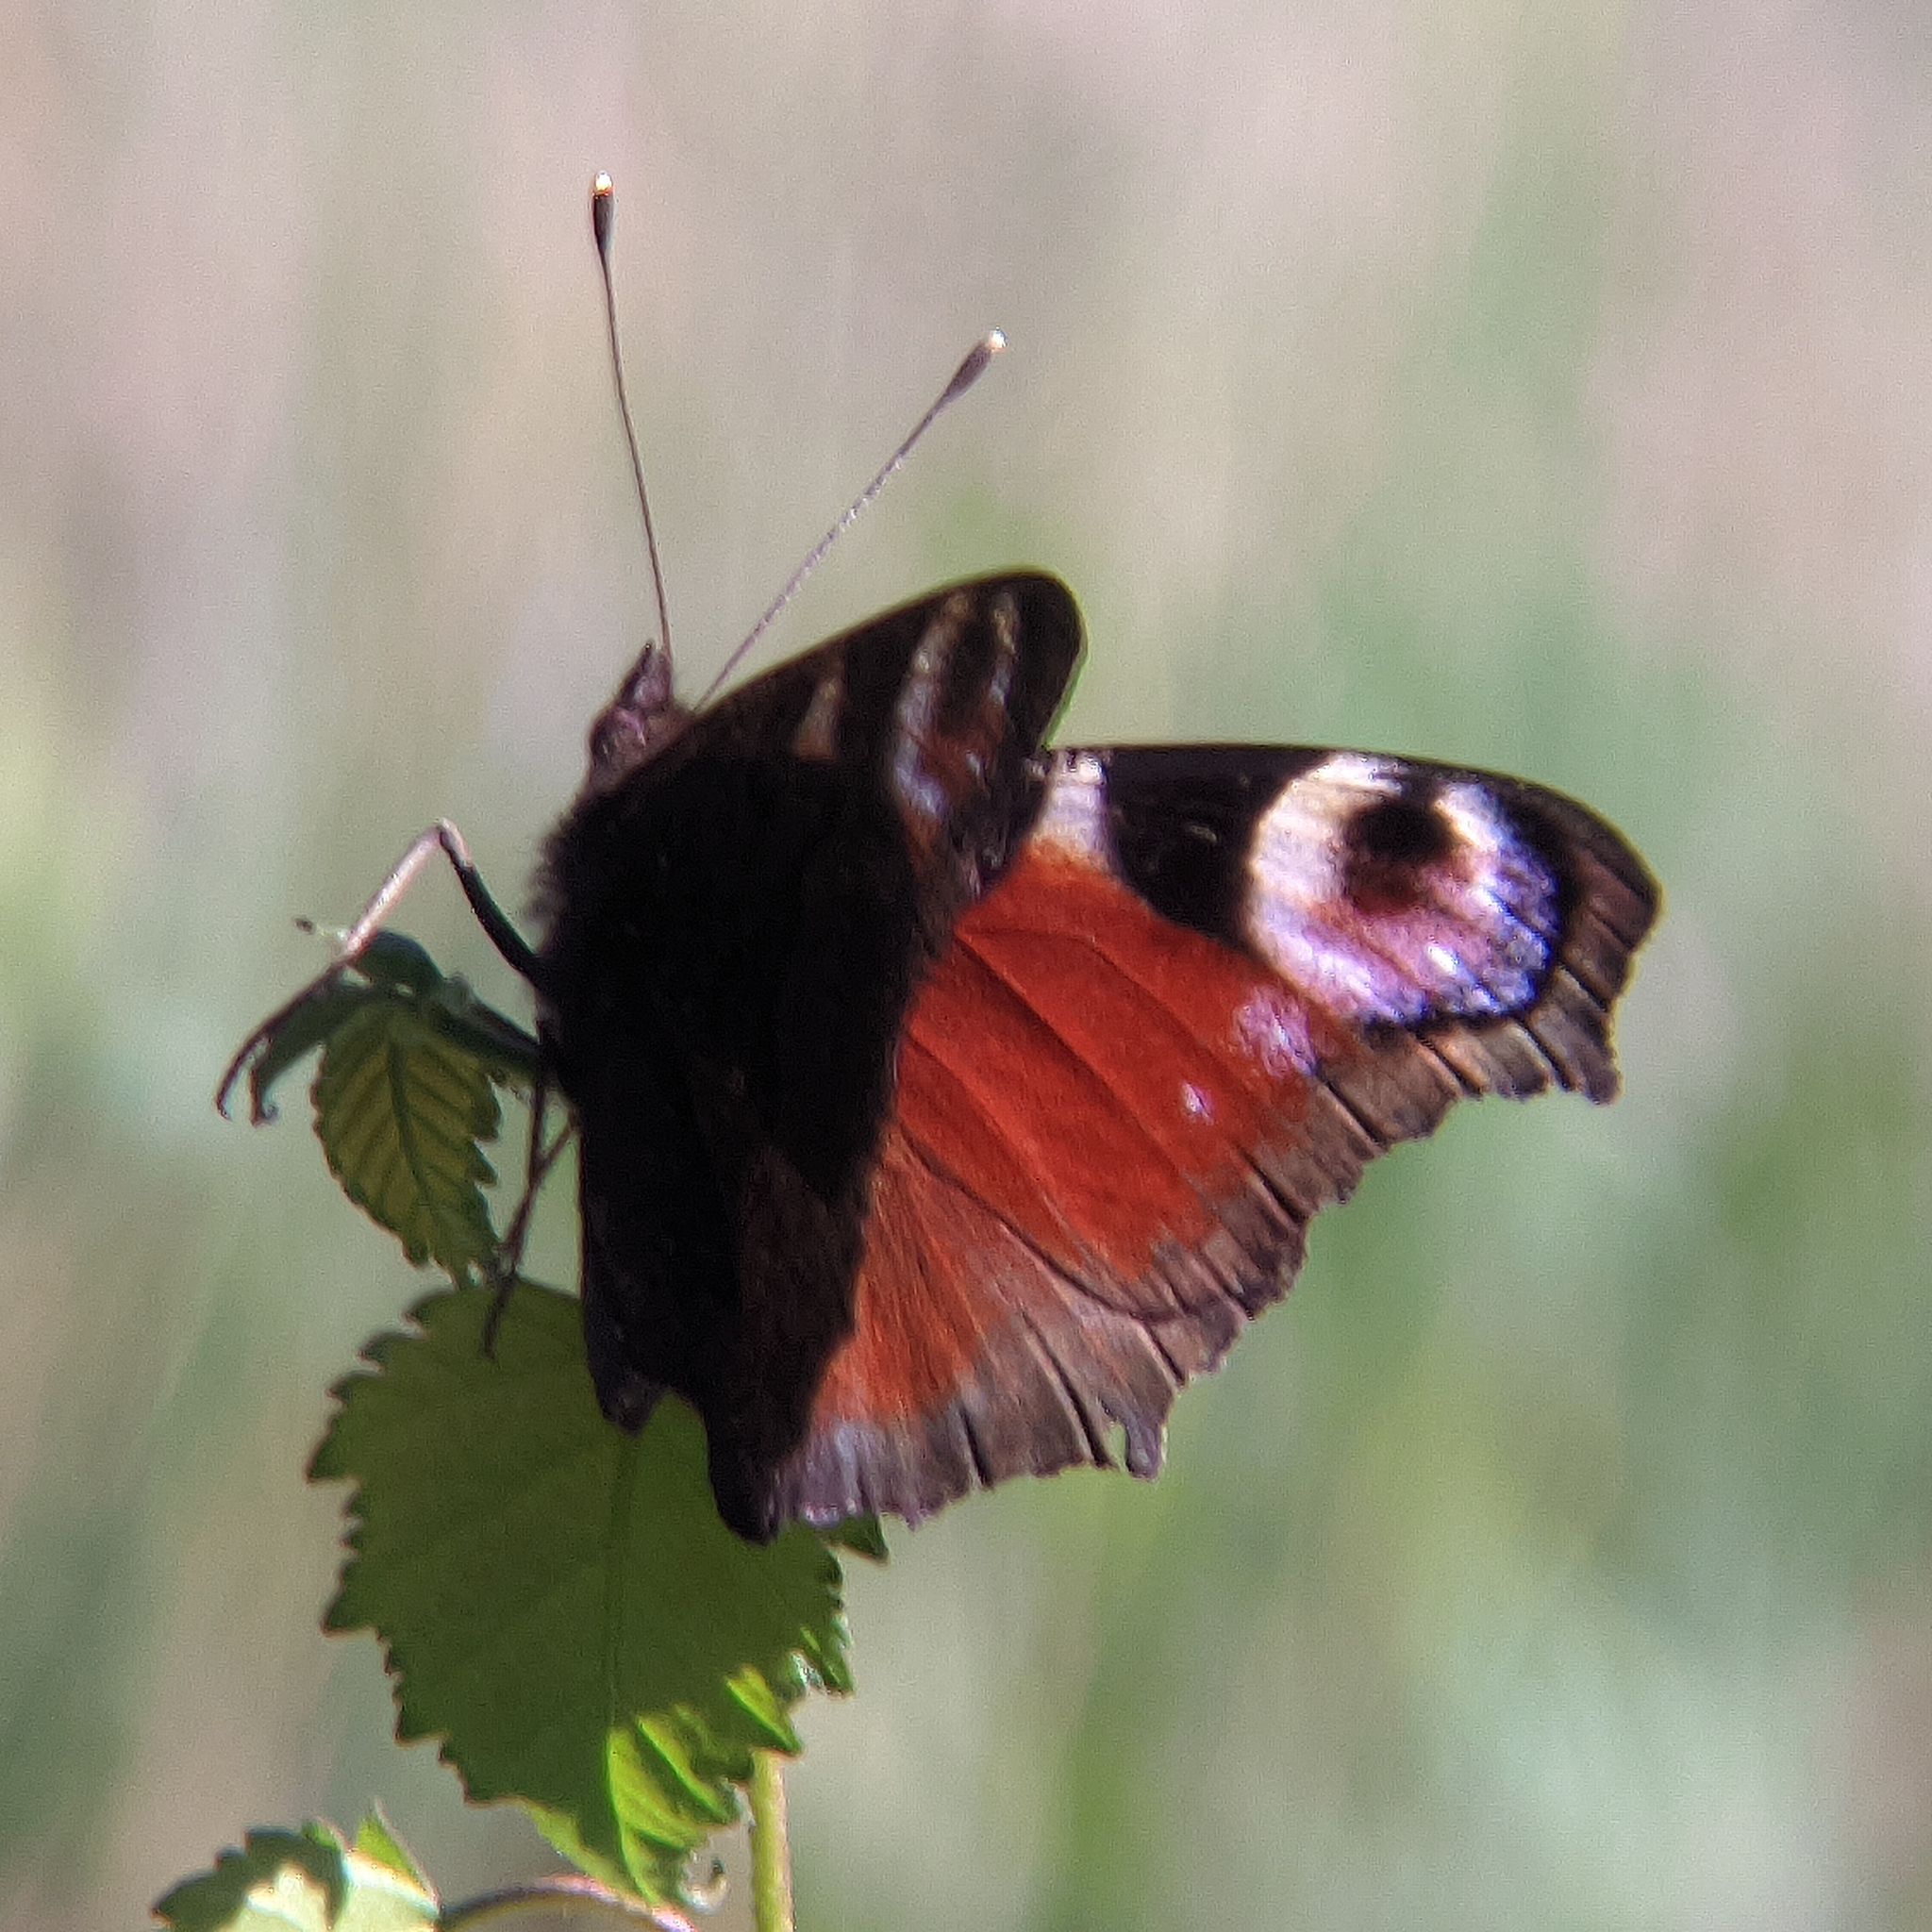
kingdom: Animalia
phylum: Arthropoda
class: Insecta
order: Lepidoptera
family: Nymphalidae
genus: Aglais
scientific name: Aglais io
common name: Peacock
